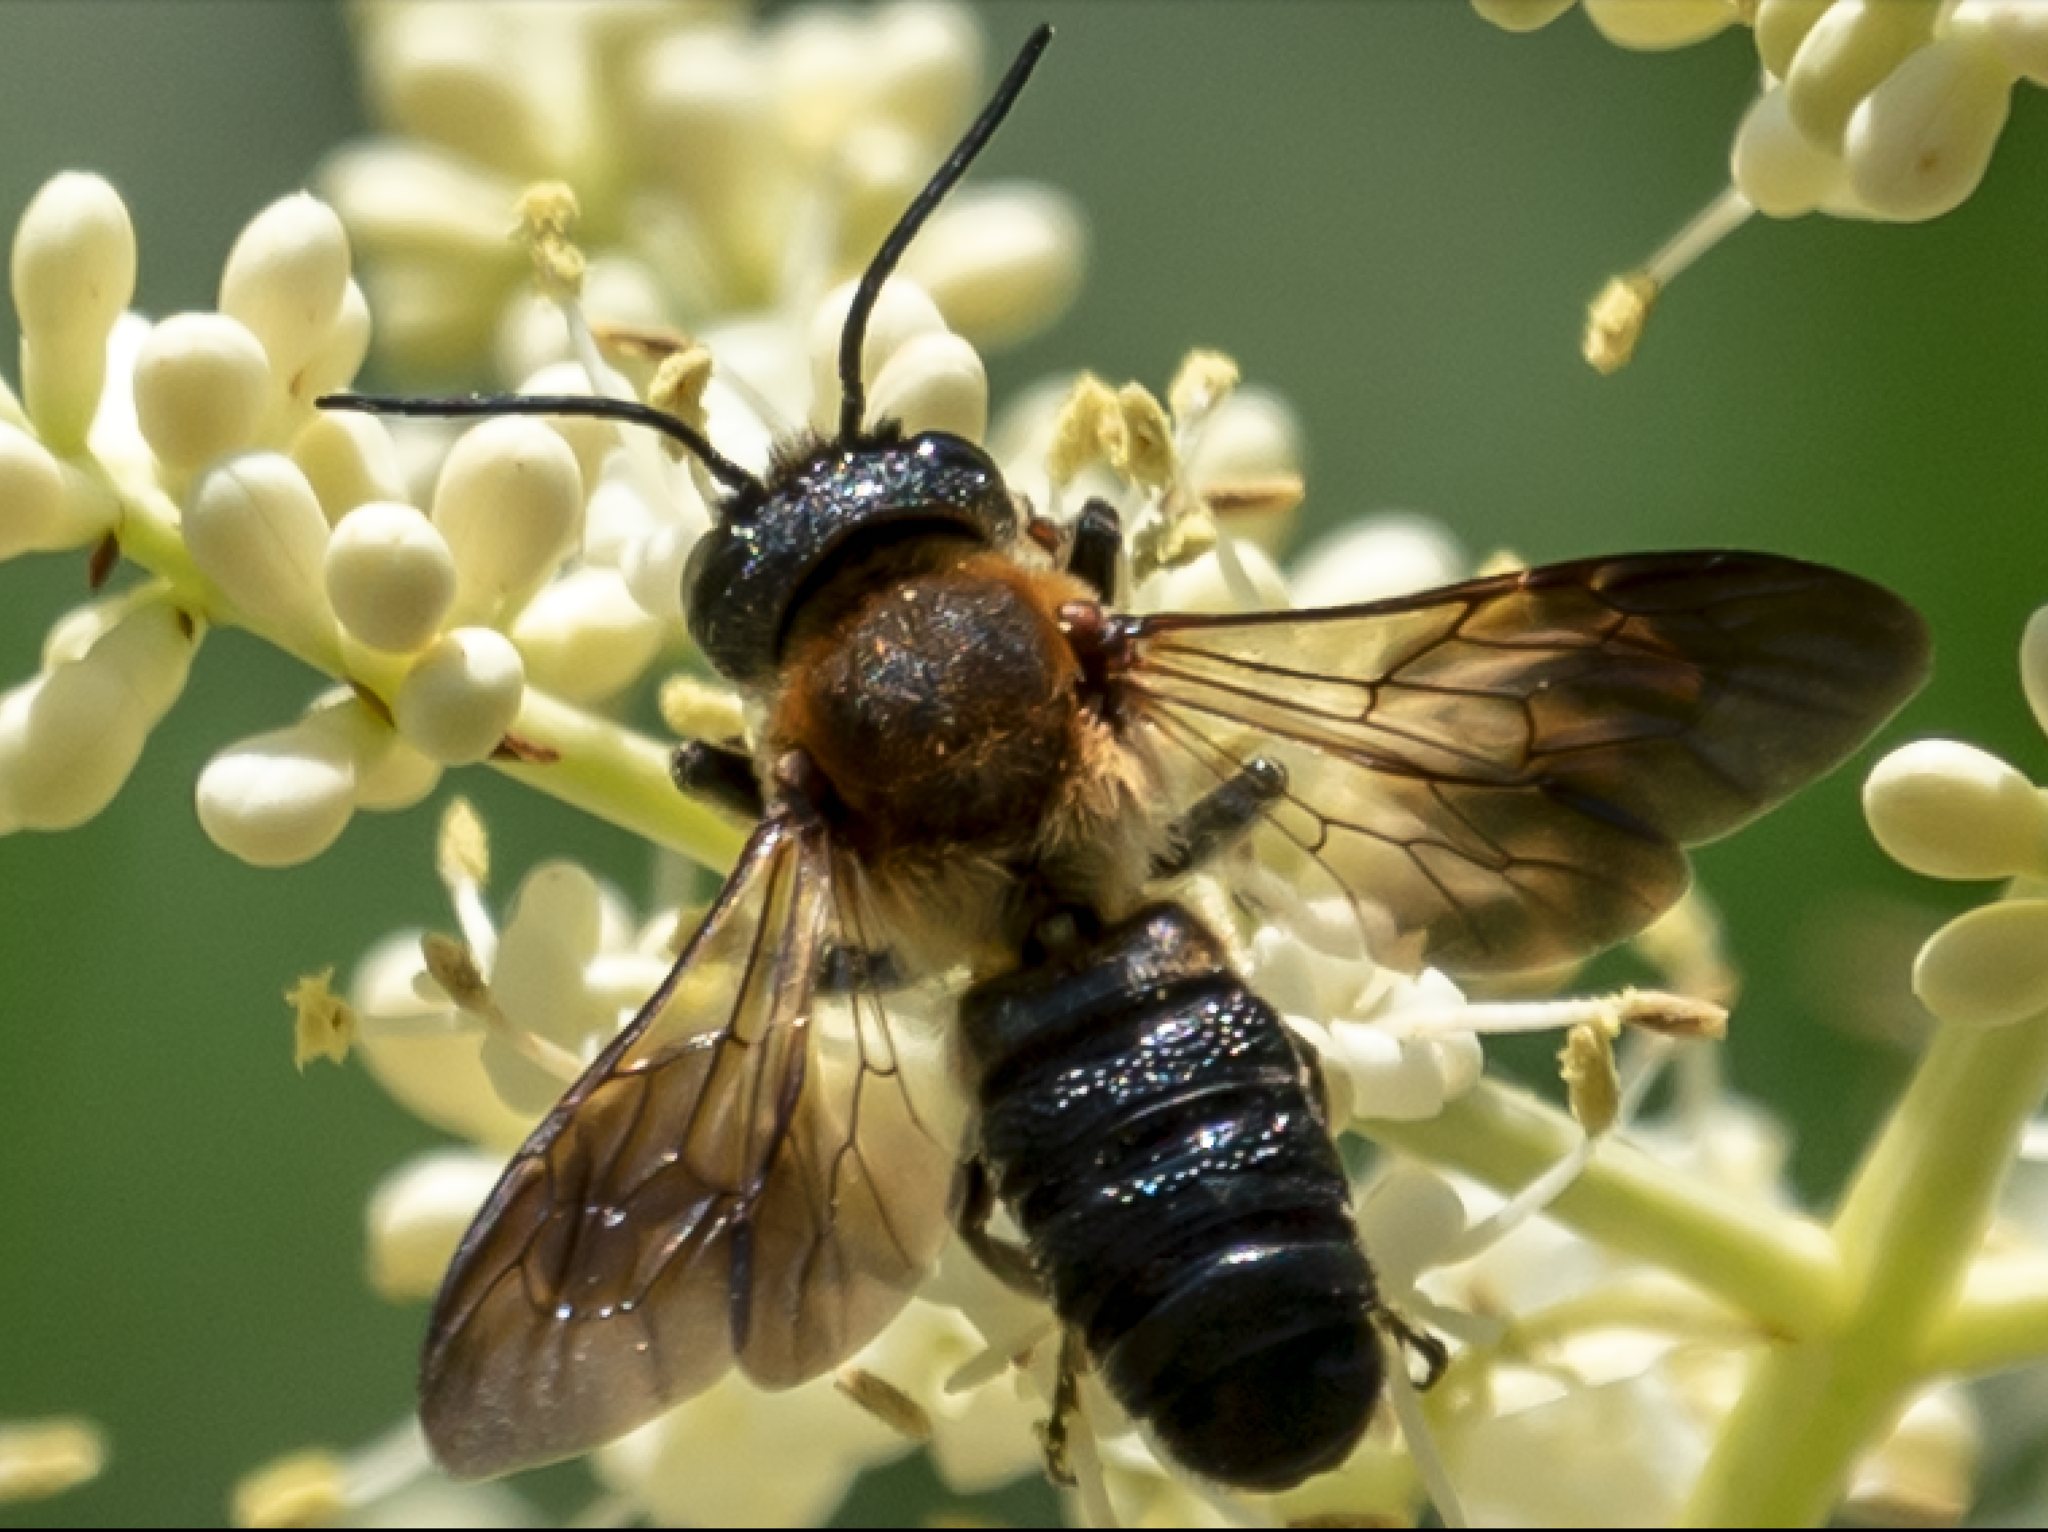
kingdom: Animalia
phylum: Arthropoda
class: Insecta
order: Hymenoptera
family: Megachilidae
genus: Megachile
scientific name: Megachile sculpturalis
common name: Sculptured resin bee
